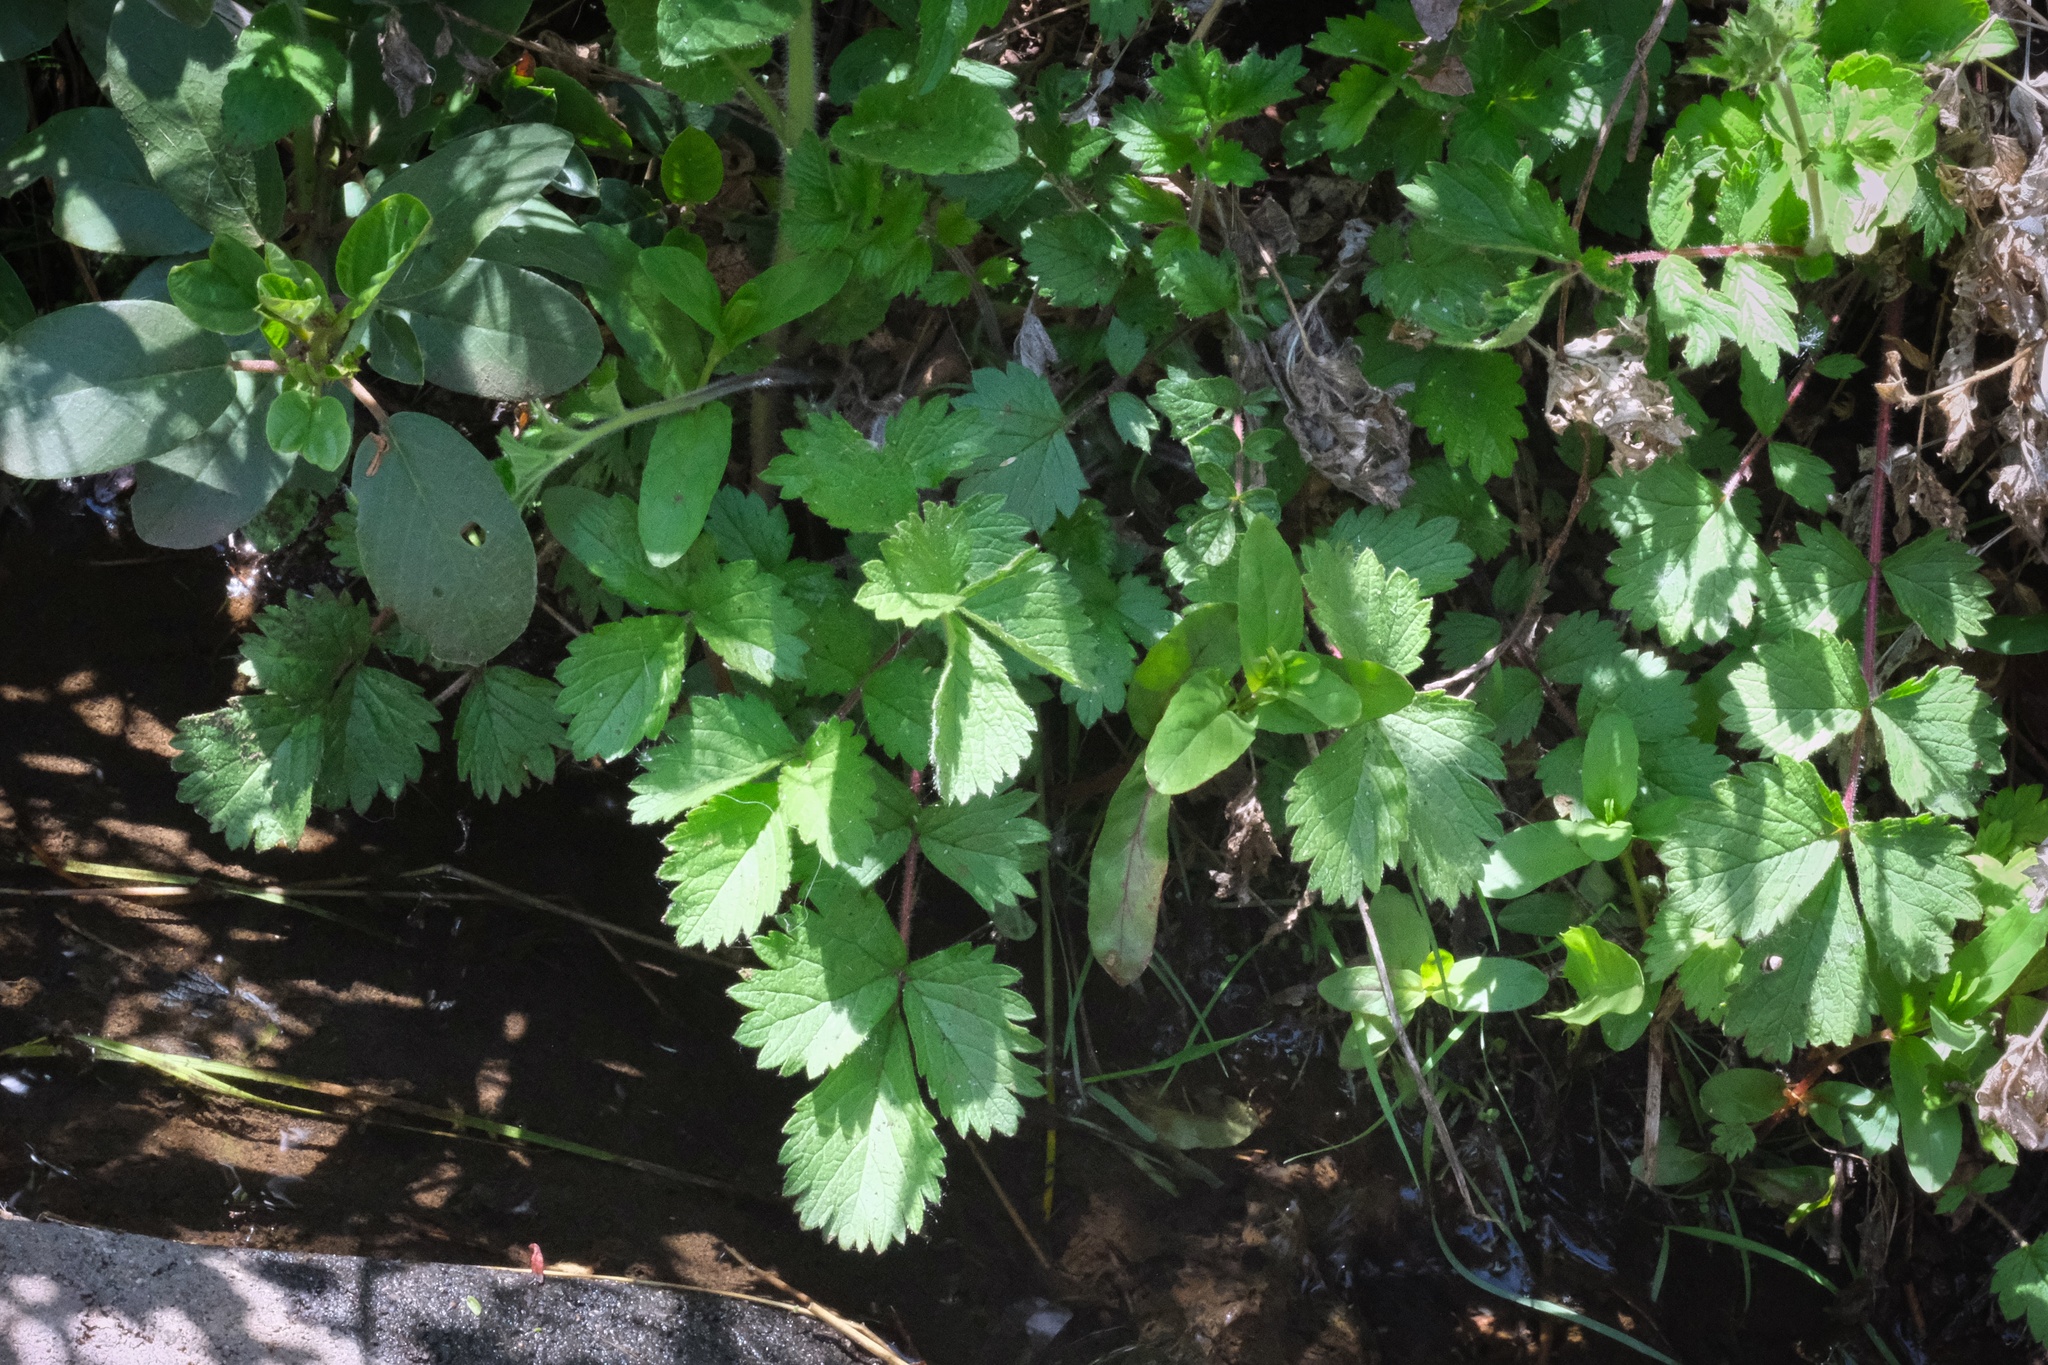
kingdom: Plantae
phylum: Tracheophyta
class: Magnoliopsida
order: Rosales
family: Rosaceae
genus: Drymocallis
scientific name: Drymocallis glandulosa
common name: Sticky cinquefoil
